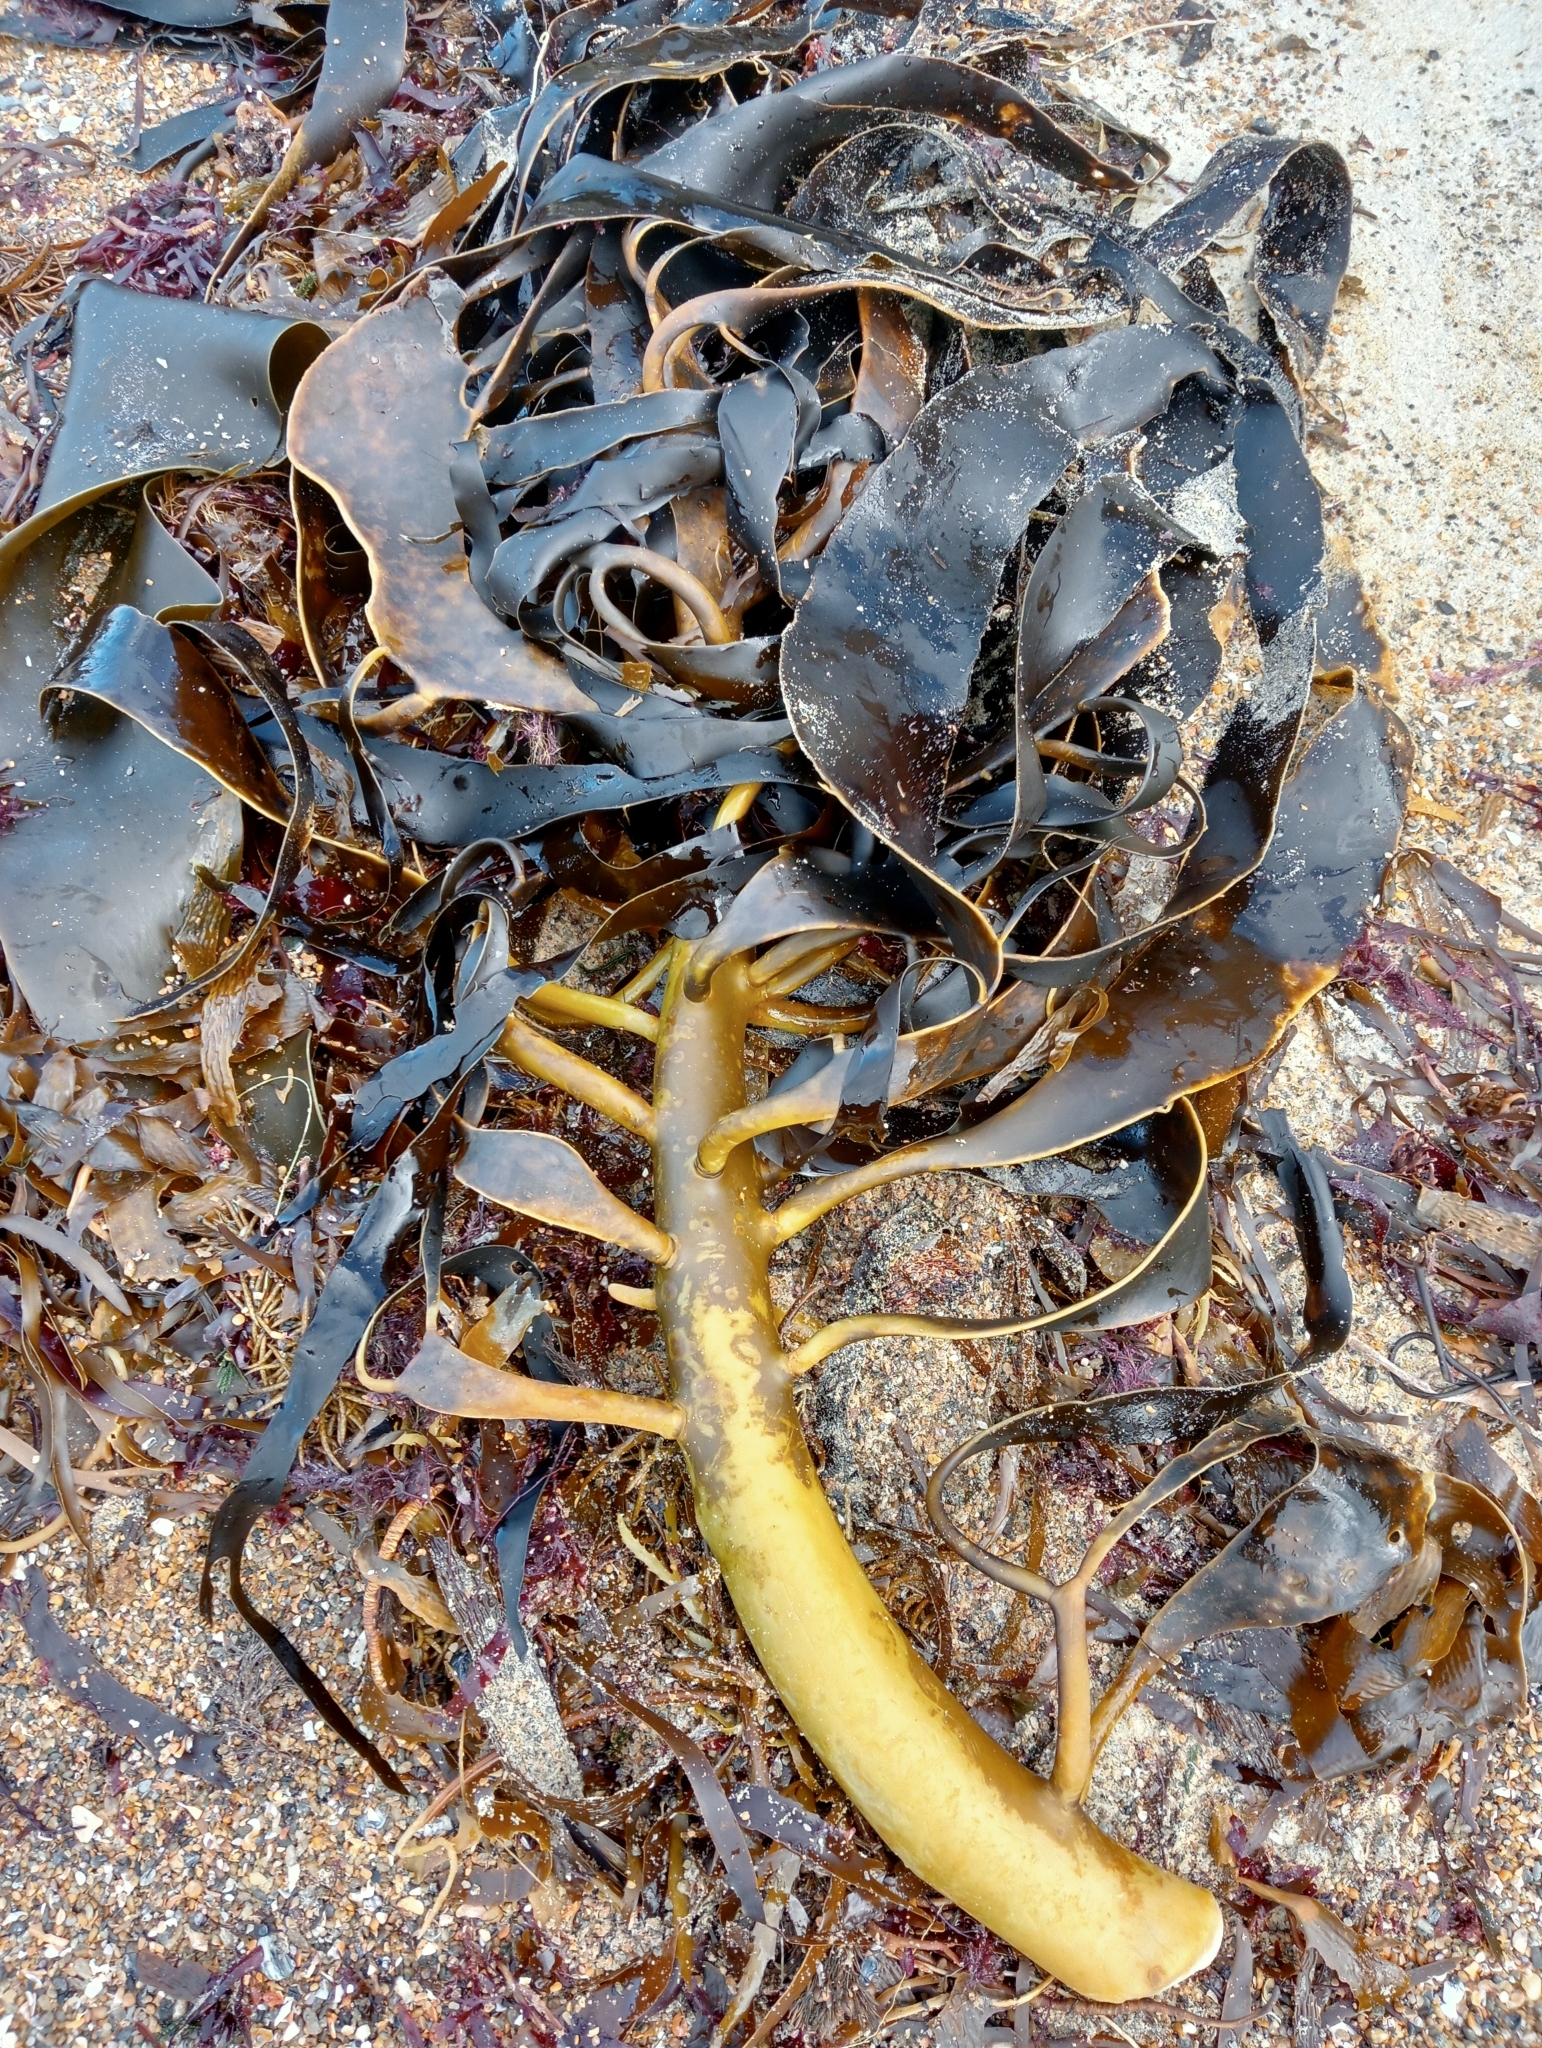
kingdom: Chromista
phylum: Ochrophyta
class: Phaeophyceae
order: Fucales
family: Durvillaeaceae
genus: Durvillaea
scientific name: Durvillaea willana
